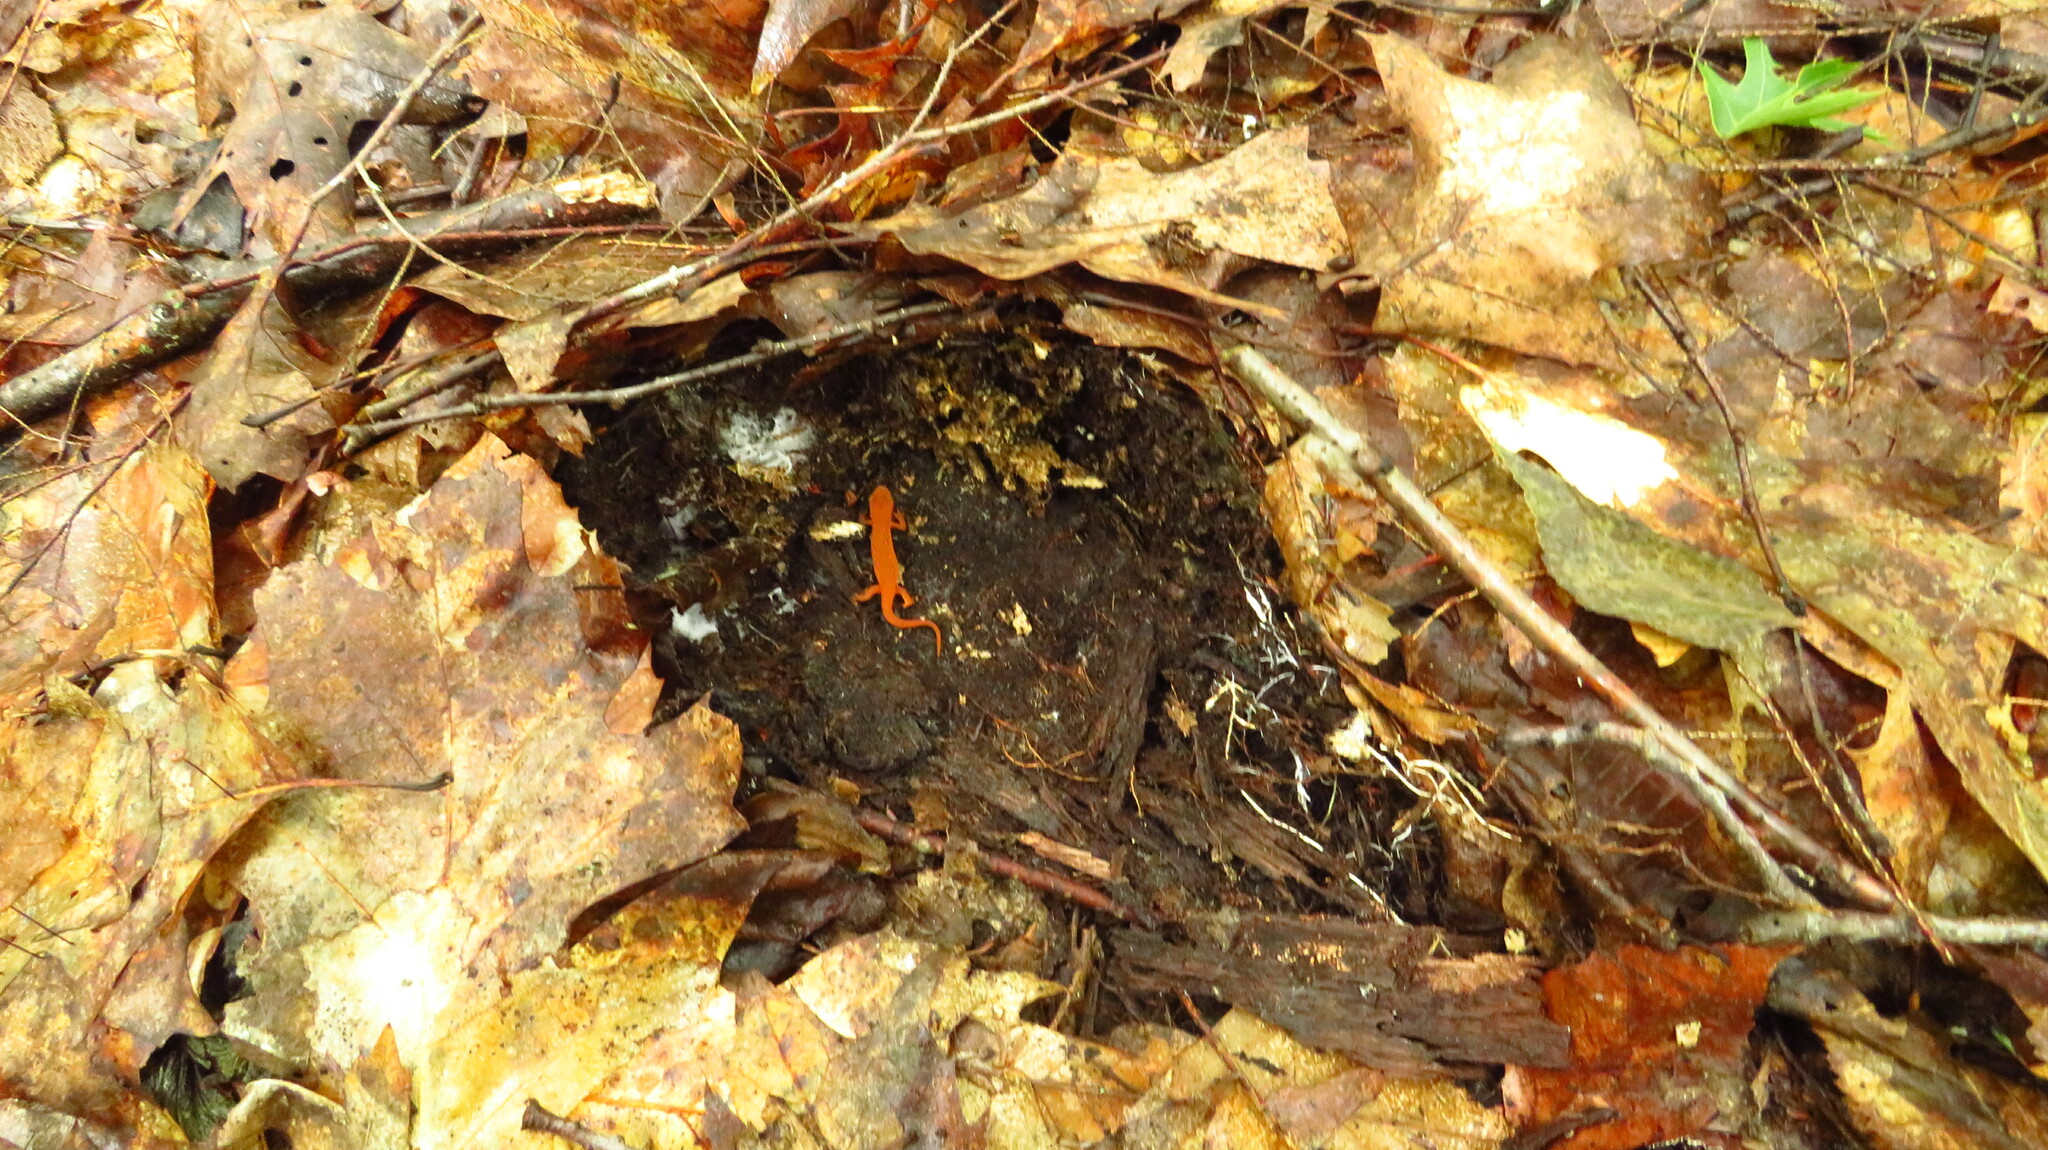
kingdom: Animalia
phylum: Chordata
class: Amphibia
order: Caudata
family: Salamandridae
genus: Notophthalmus
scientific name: Notophthalmus viridescens
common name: Eastern newt
